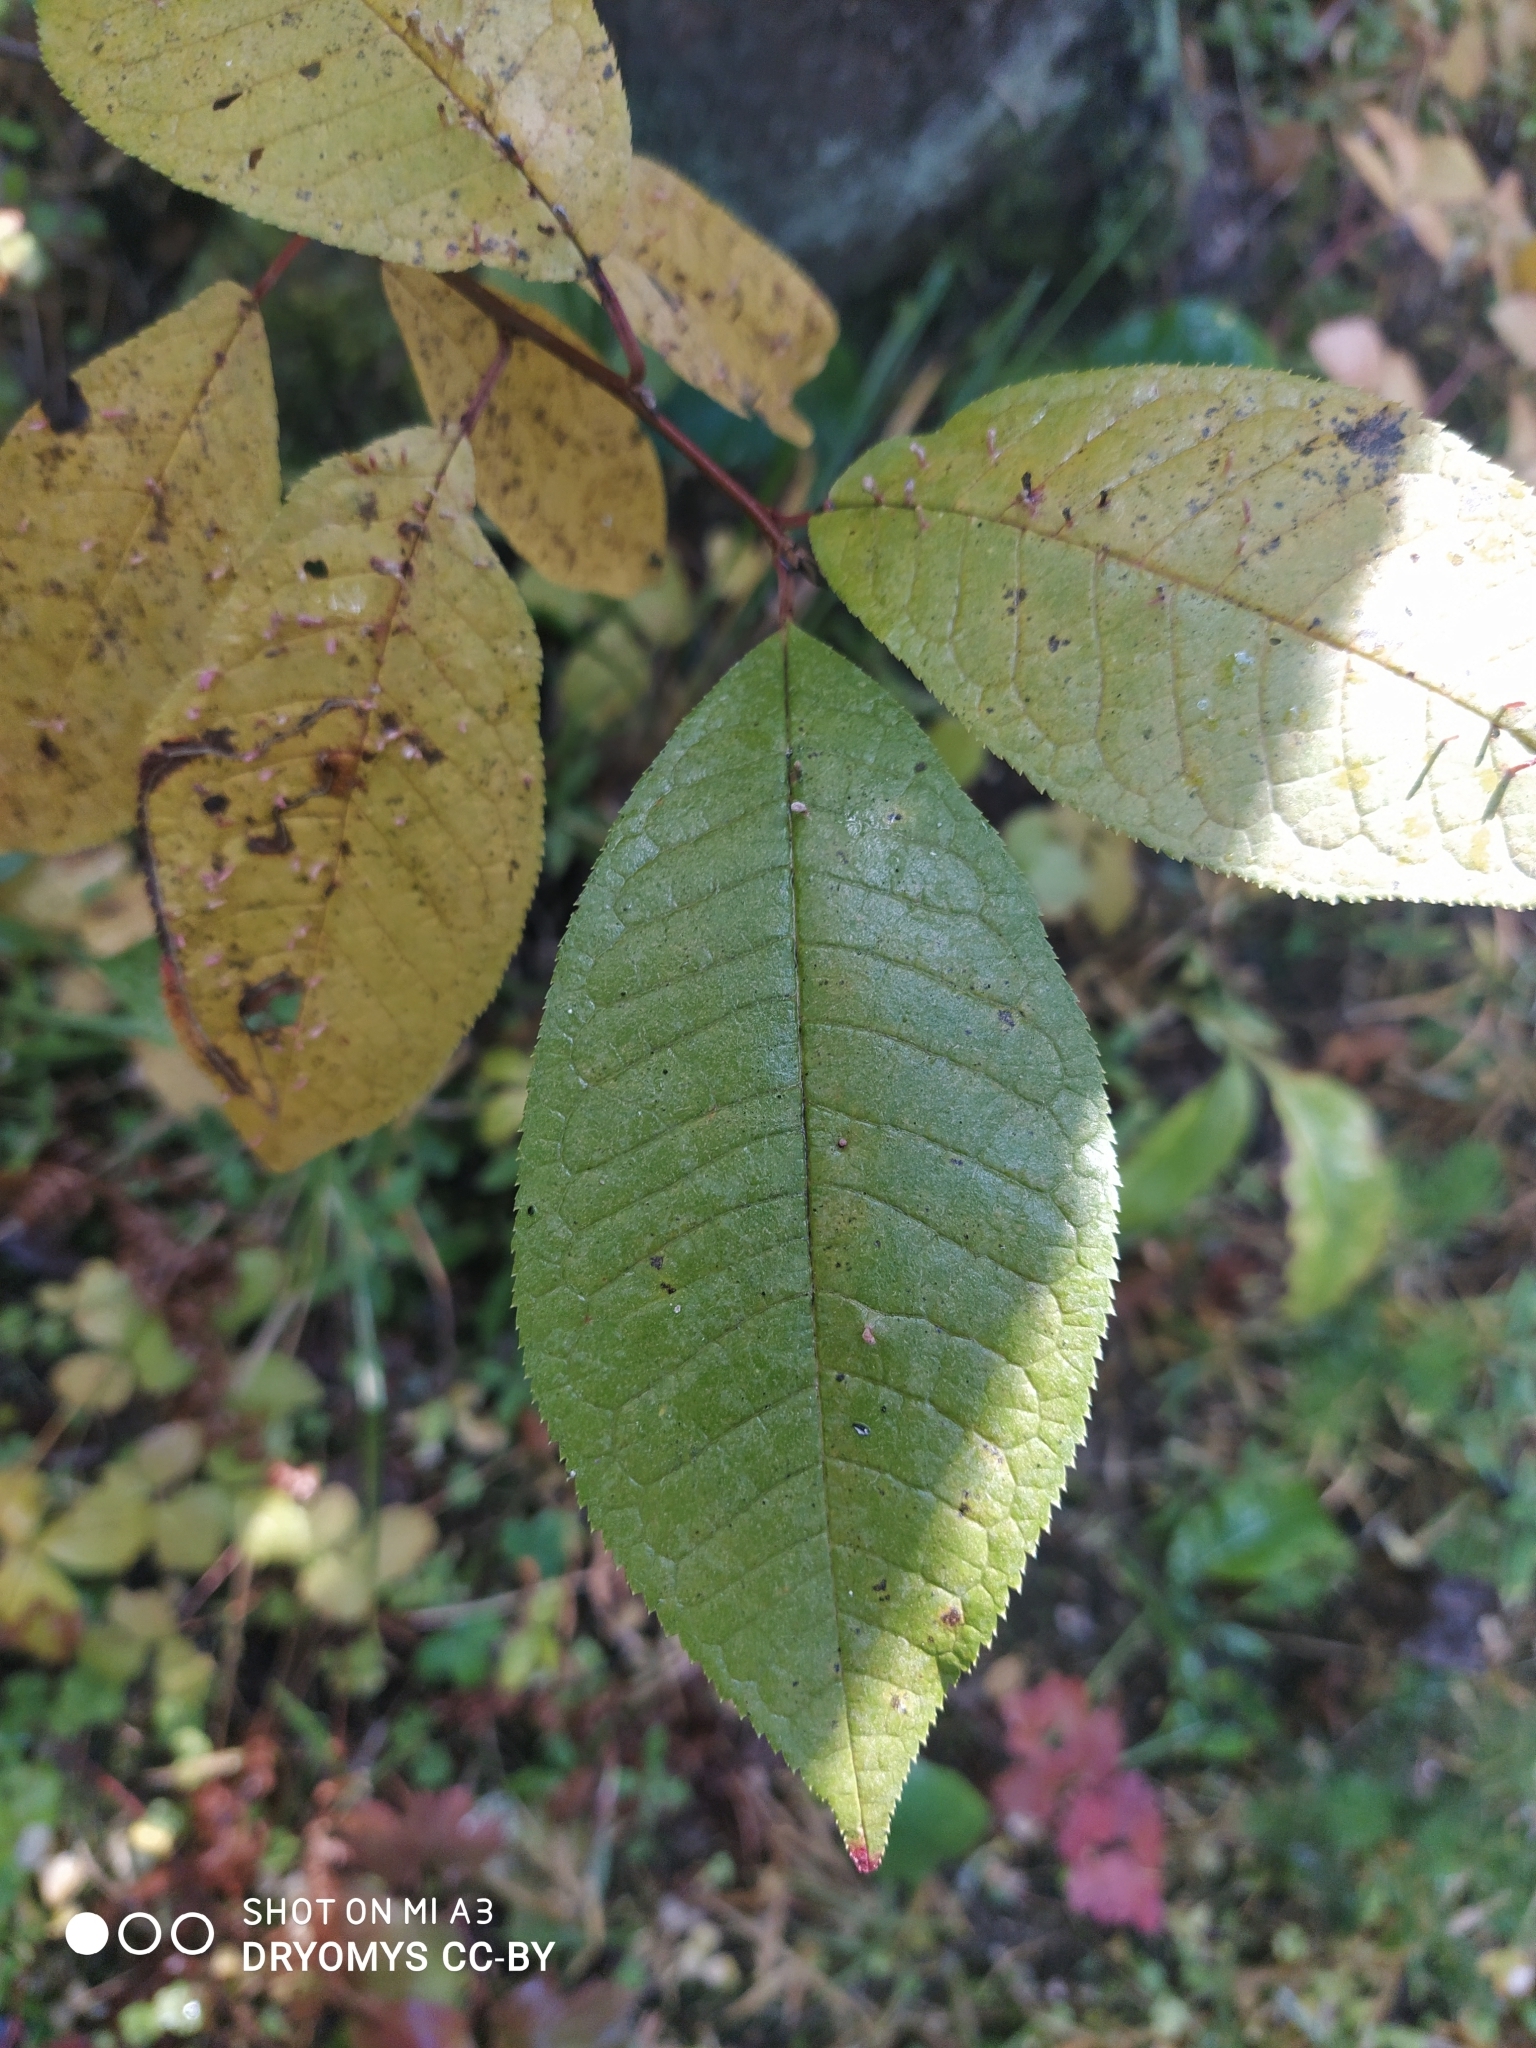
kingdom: Plantae
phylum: Tracheophyta
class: Magnoliopsida
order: Rosales
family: Rosaceae
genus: Prunus
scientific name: Prunus padus
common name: Bird cherry
